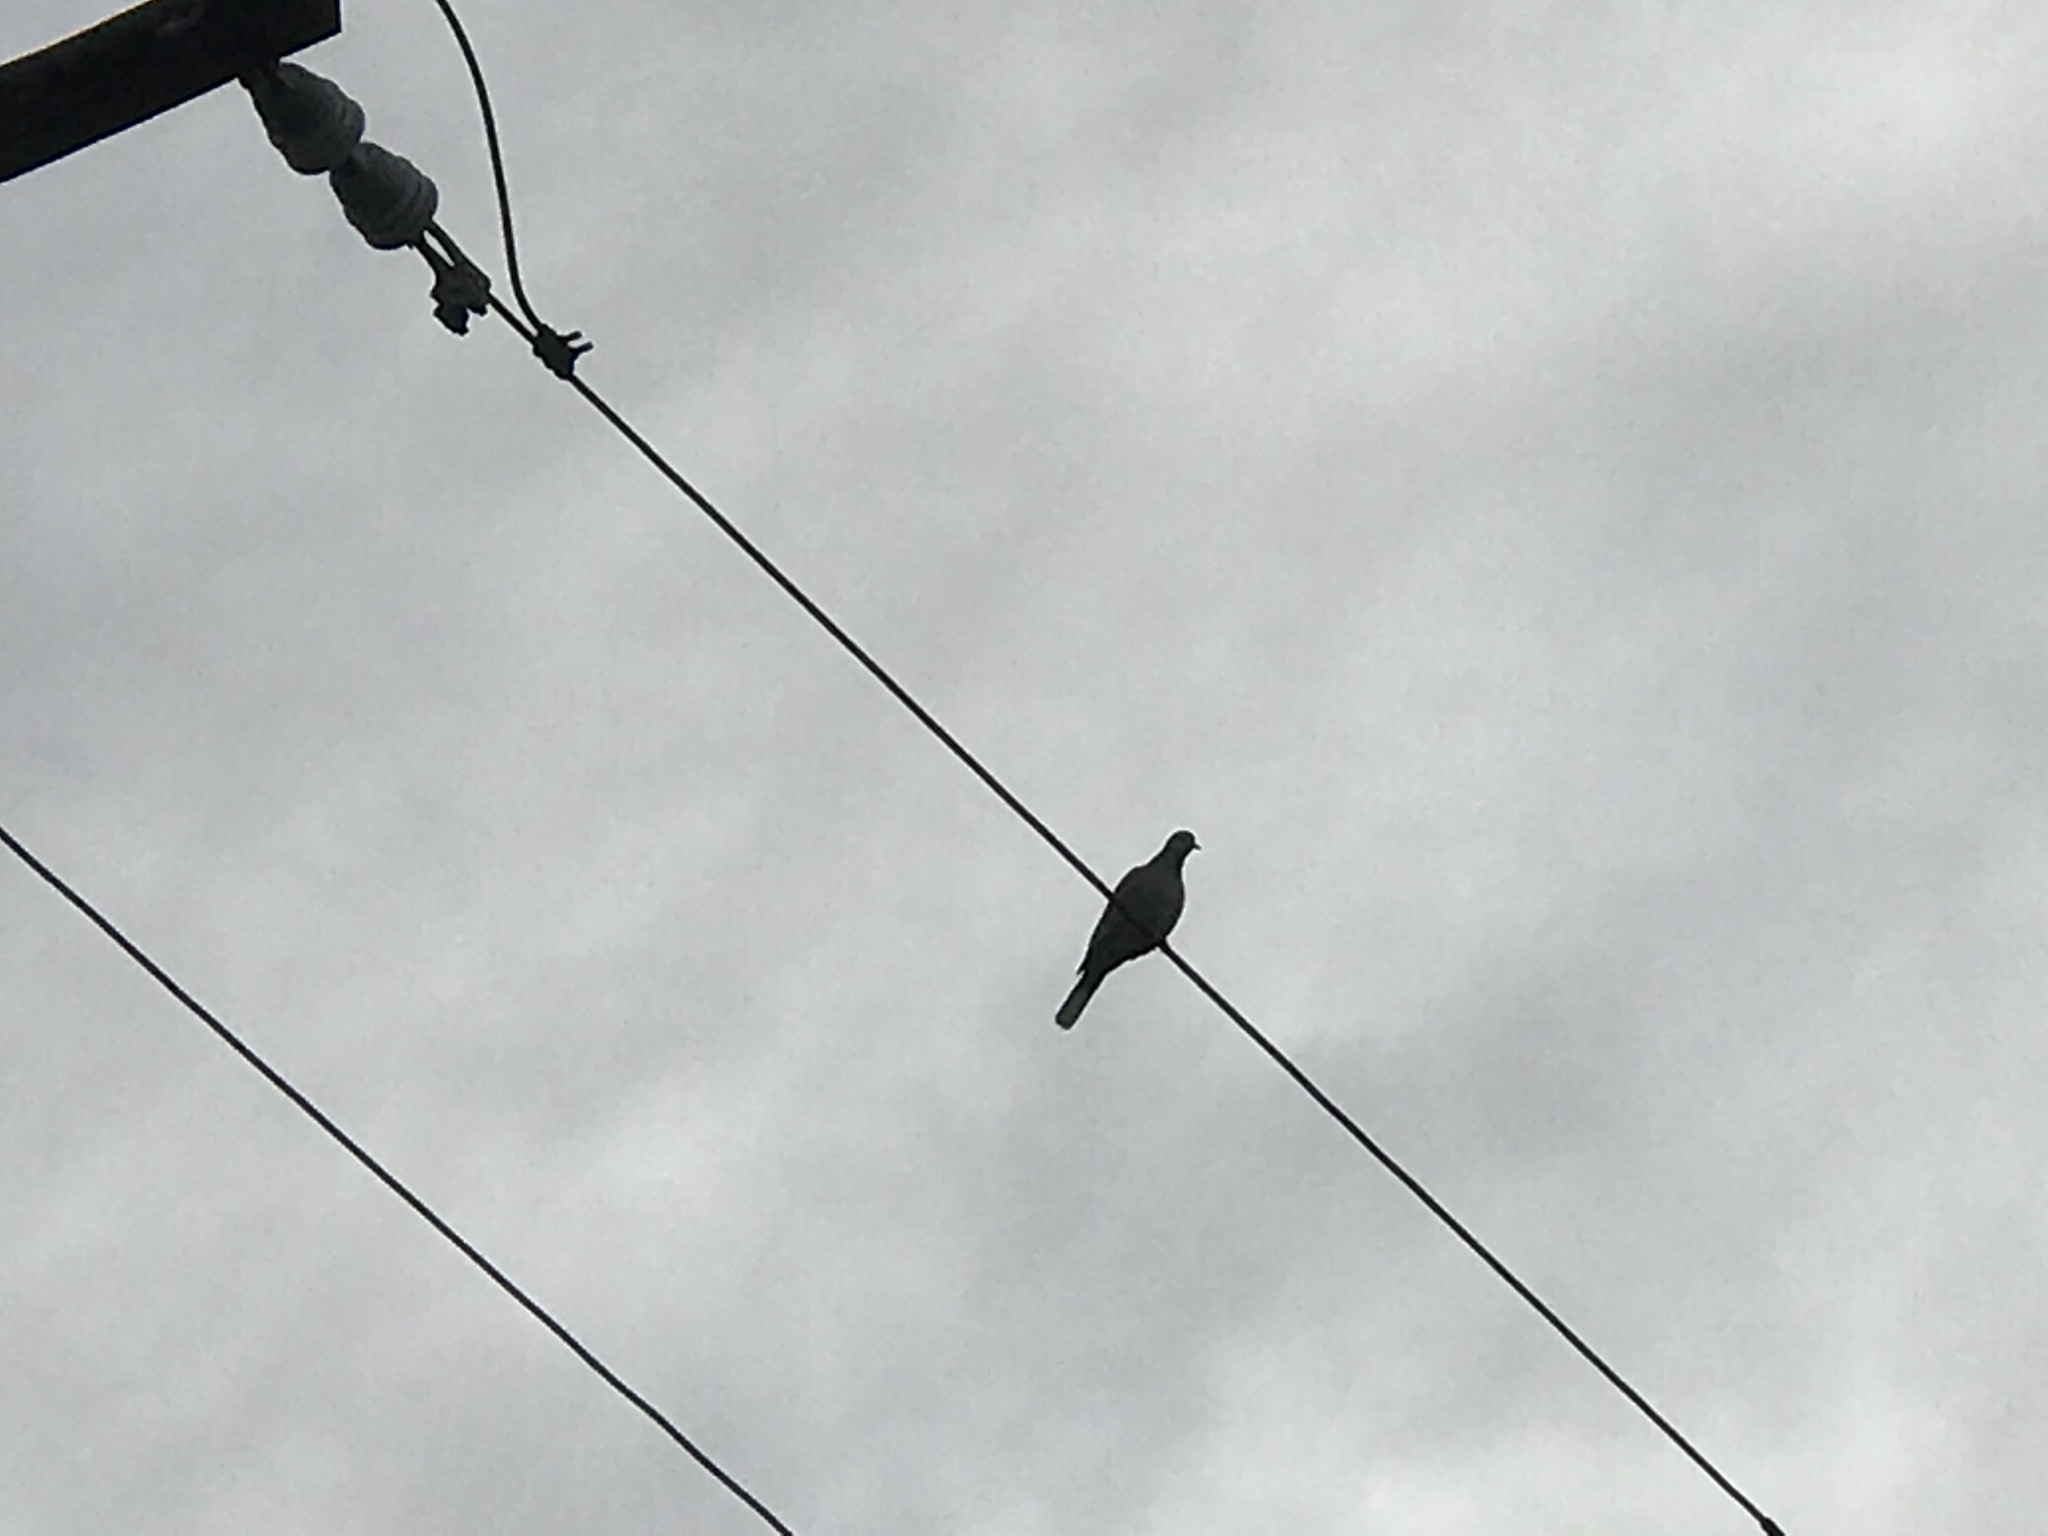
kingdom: Animalia
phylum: Chordata
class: Aves
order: Columbiformes
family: Columbidae
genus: Streptopelia
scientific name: Streptopelia decaocto
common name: Eurasian collared dove
